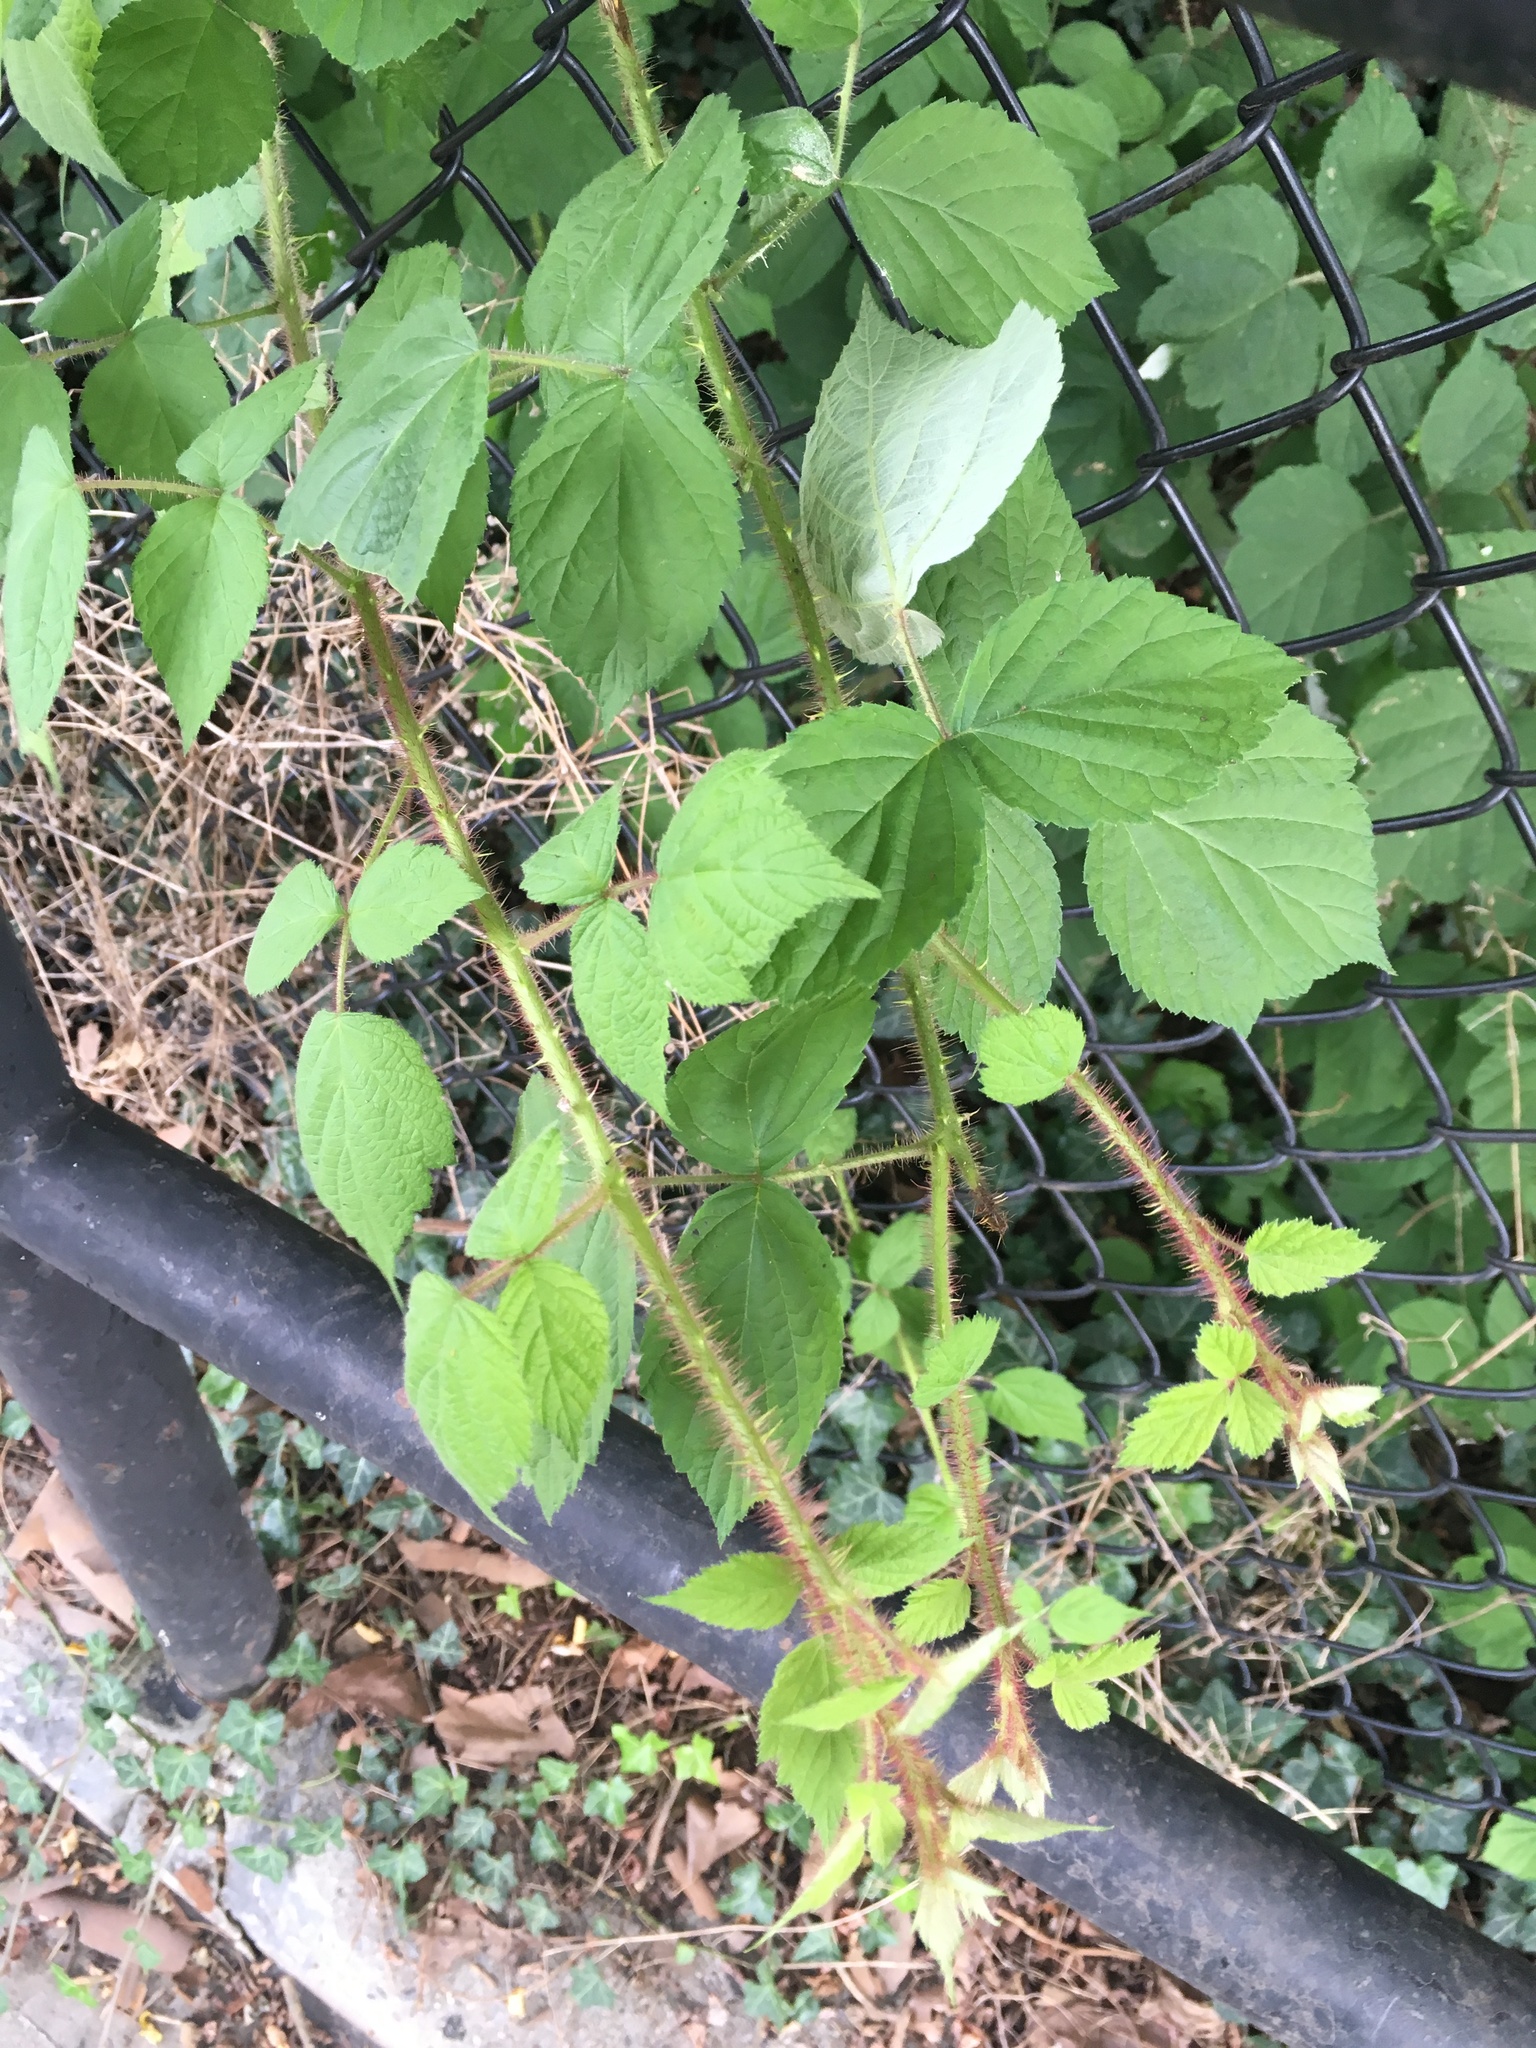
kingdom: Plantae
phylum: Tracheophyta
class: Magnoliopsida
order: Rosales
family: Rosaceae
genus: Rubus
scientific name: Rubus phoenicolasius
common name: Japanese wineberry
